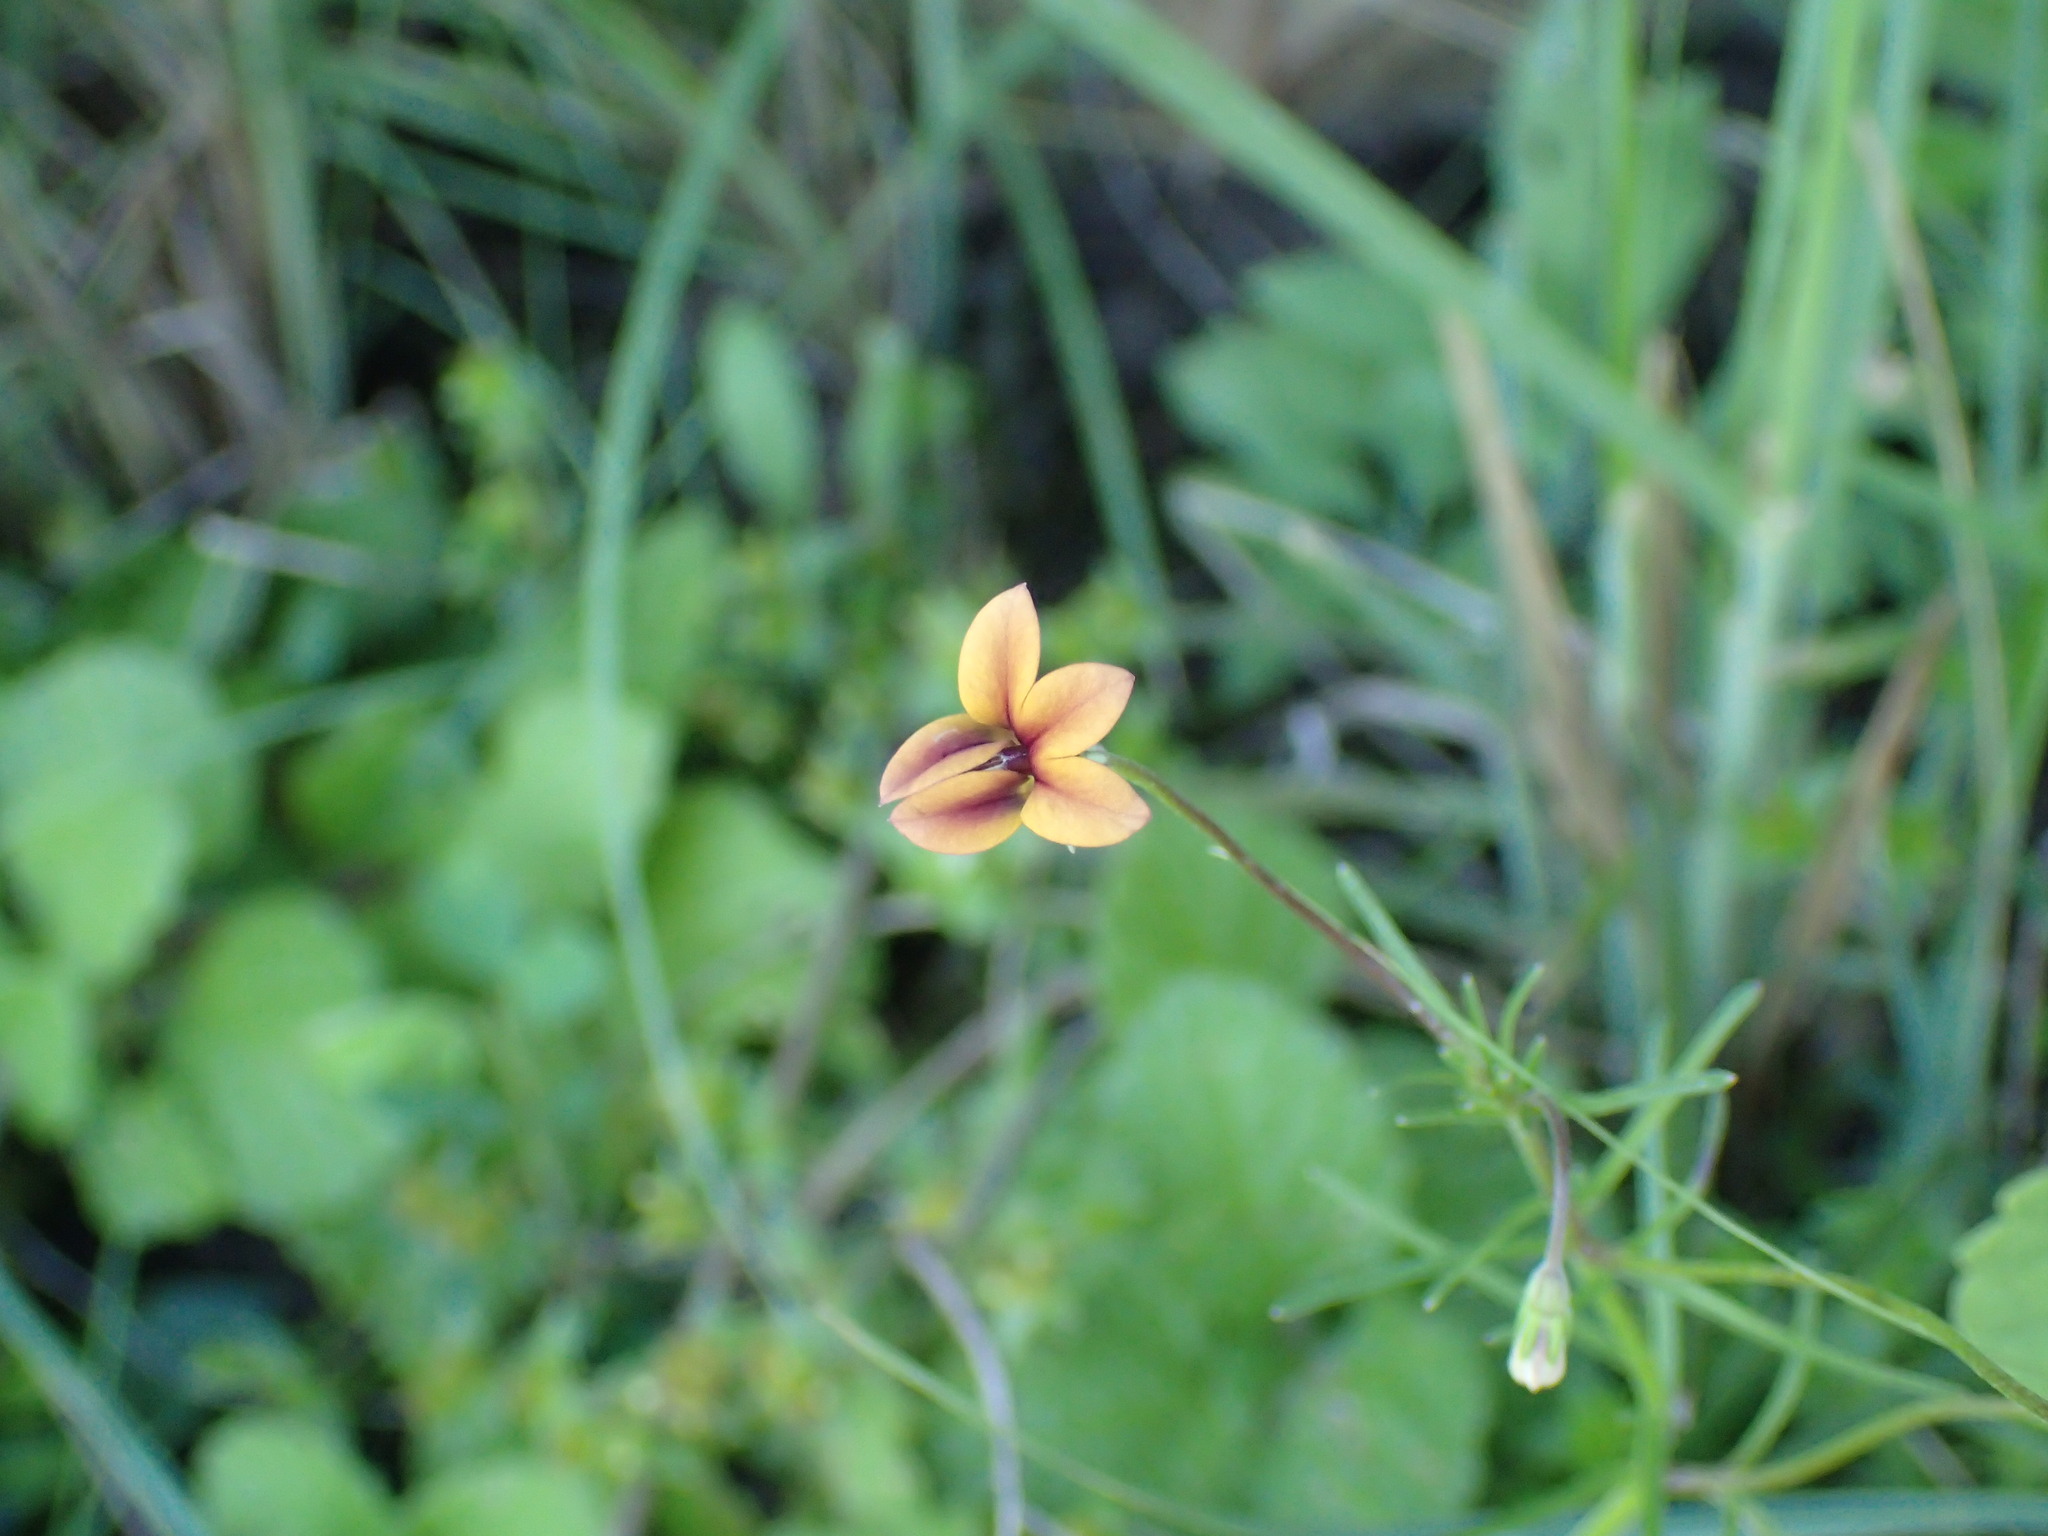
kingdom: Plantae
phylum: Tracheophyta
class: Magnoliopsida
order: Asterales
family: Campanulaceae
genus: Monopsis
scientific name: Monopsis unidentata
